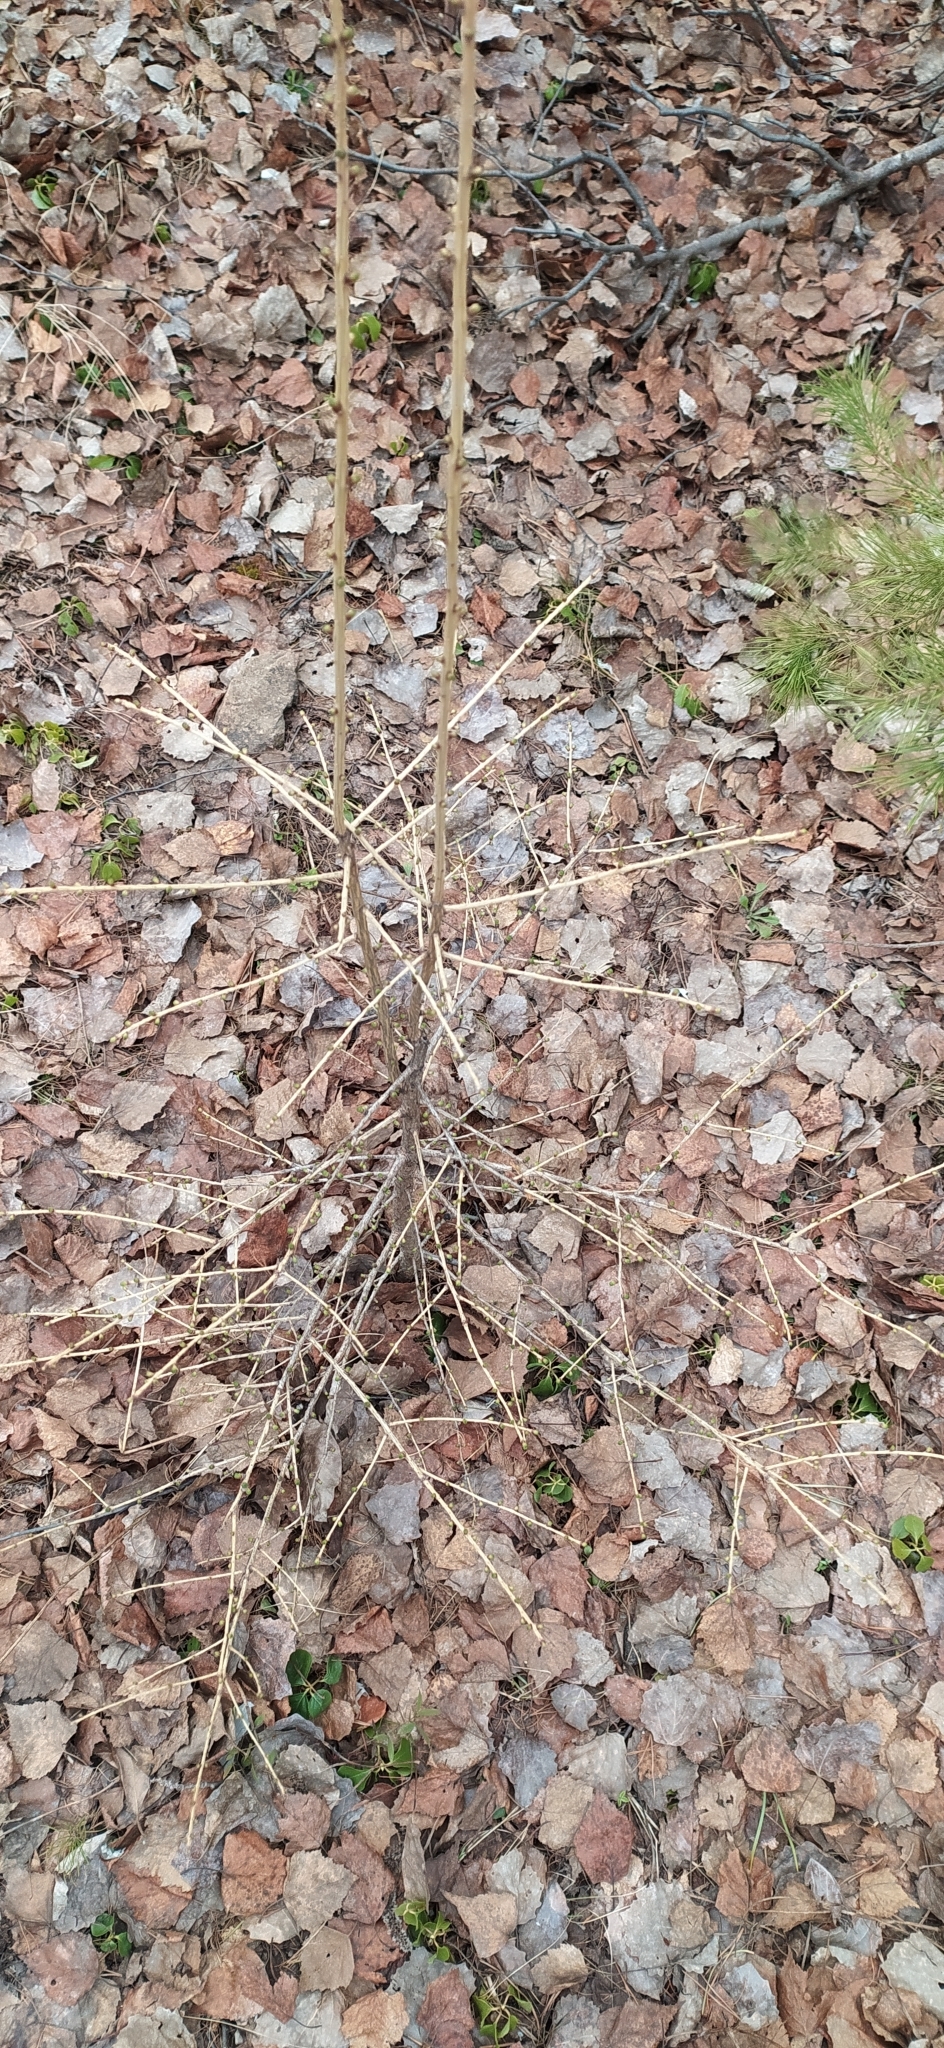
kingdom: Plantae
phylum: Tracheophyta
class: Pinopsida
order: Pinales
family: Pinaceae
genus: Larix
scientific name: Larix sibirica
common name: Siberian larch
